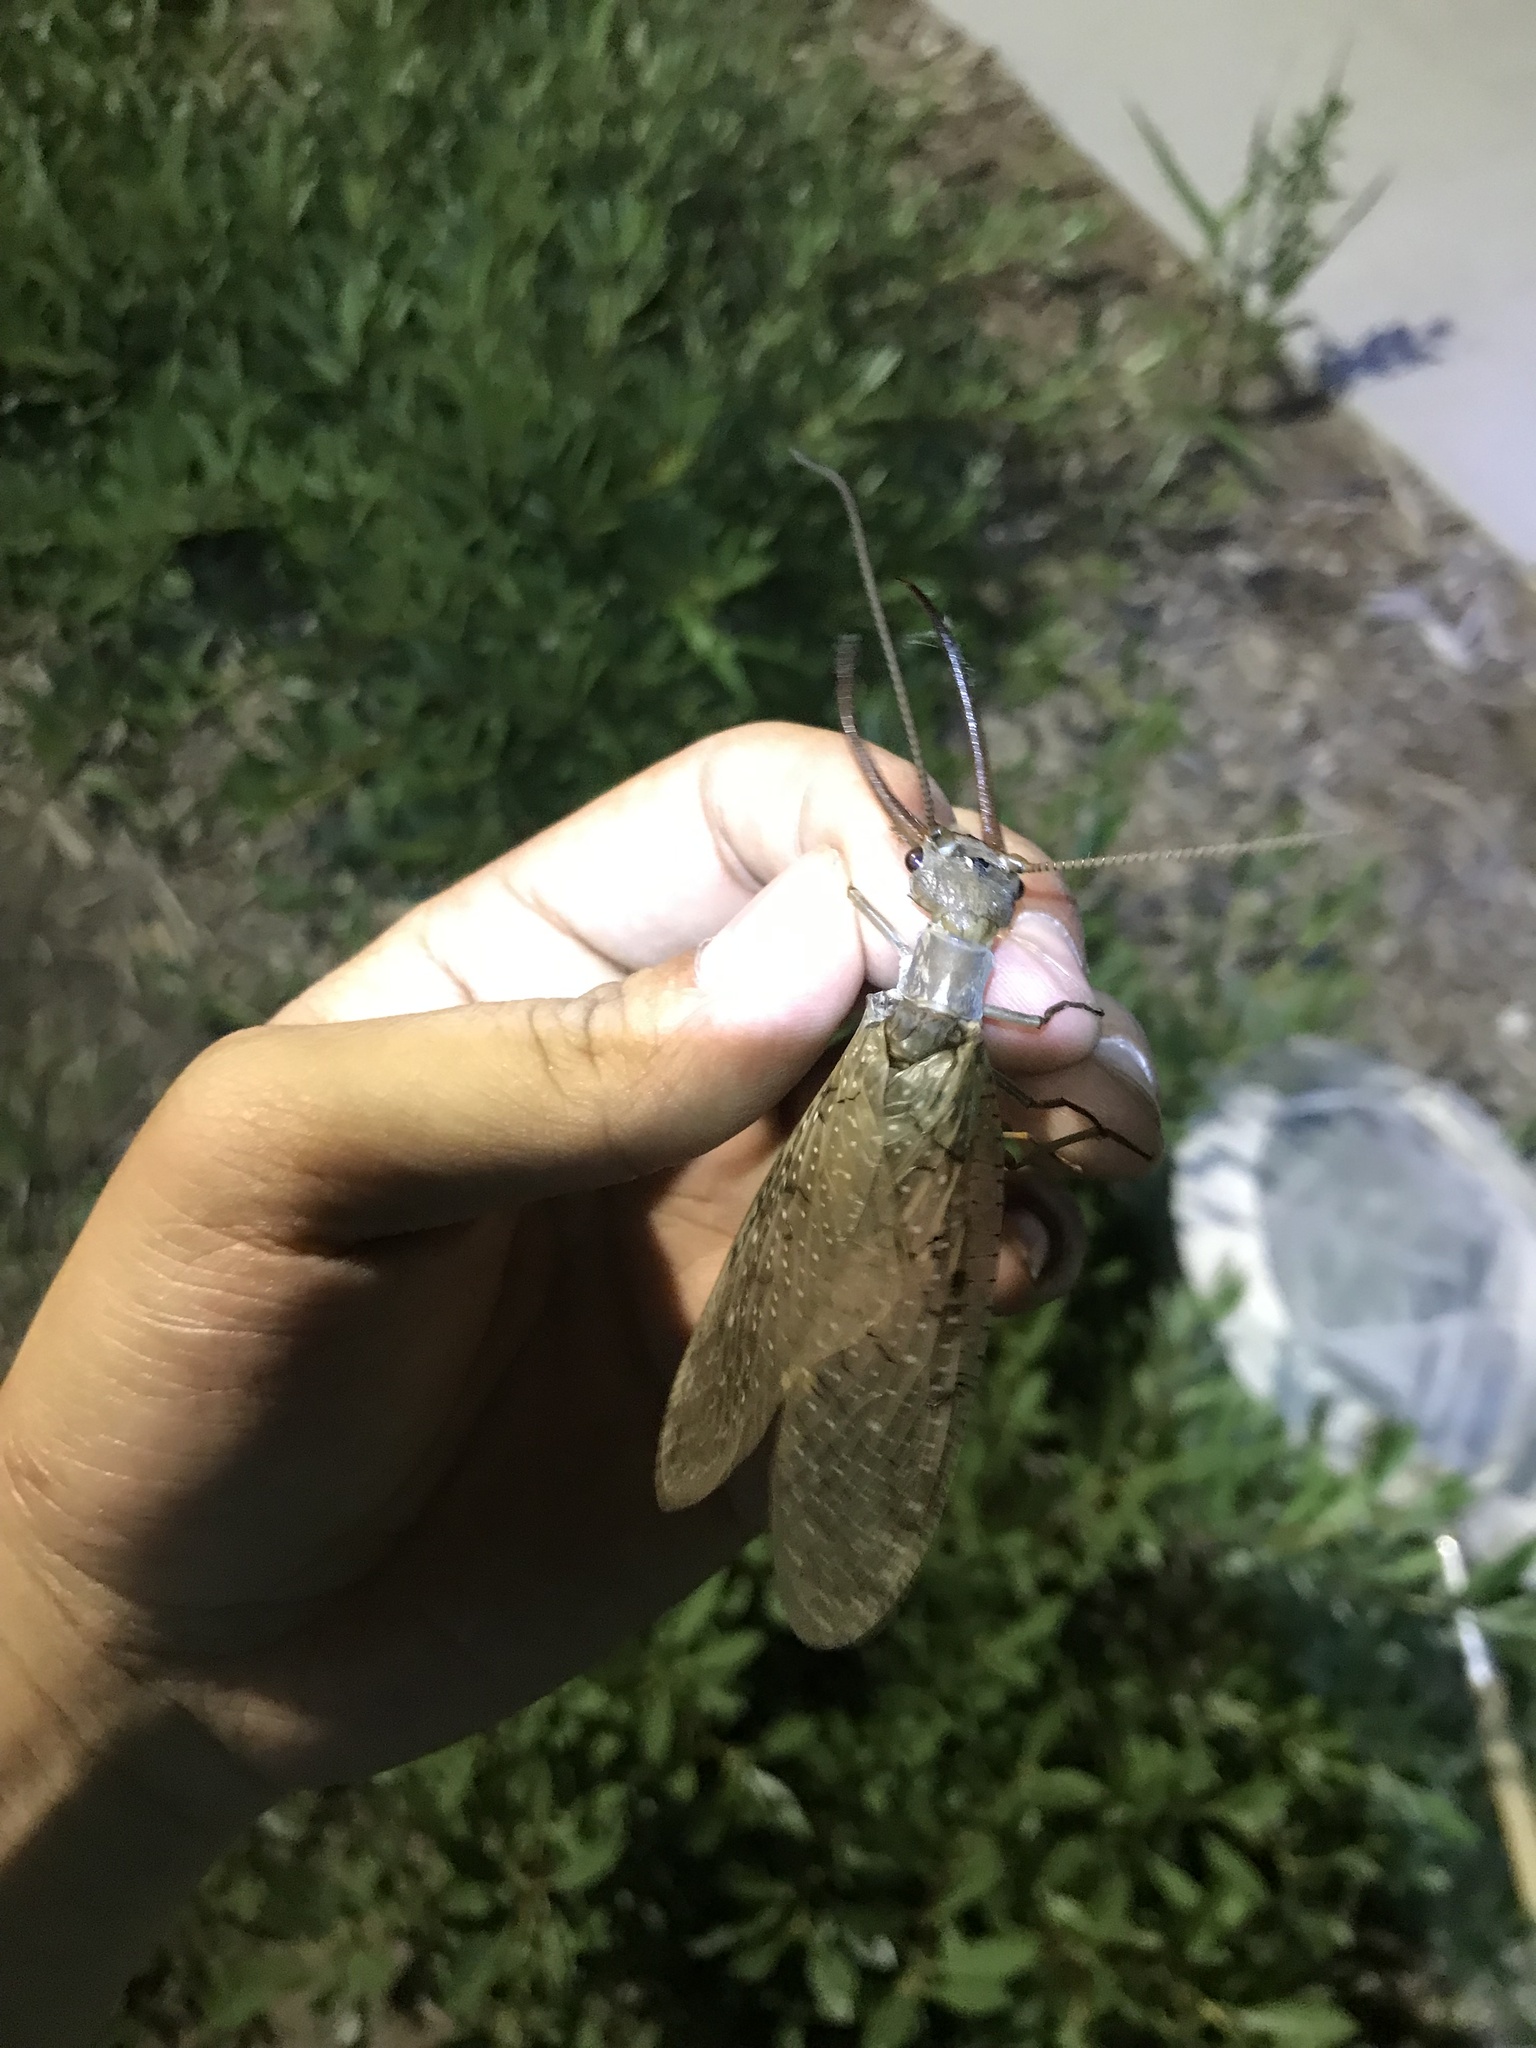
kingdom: Animalia
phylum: Arthropoda
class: Insecta
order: Megaloptera
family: Corydalidae
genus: Corydalus
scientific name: Corydalus cornutus
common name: Dobsonfly
